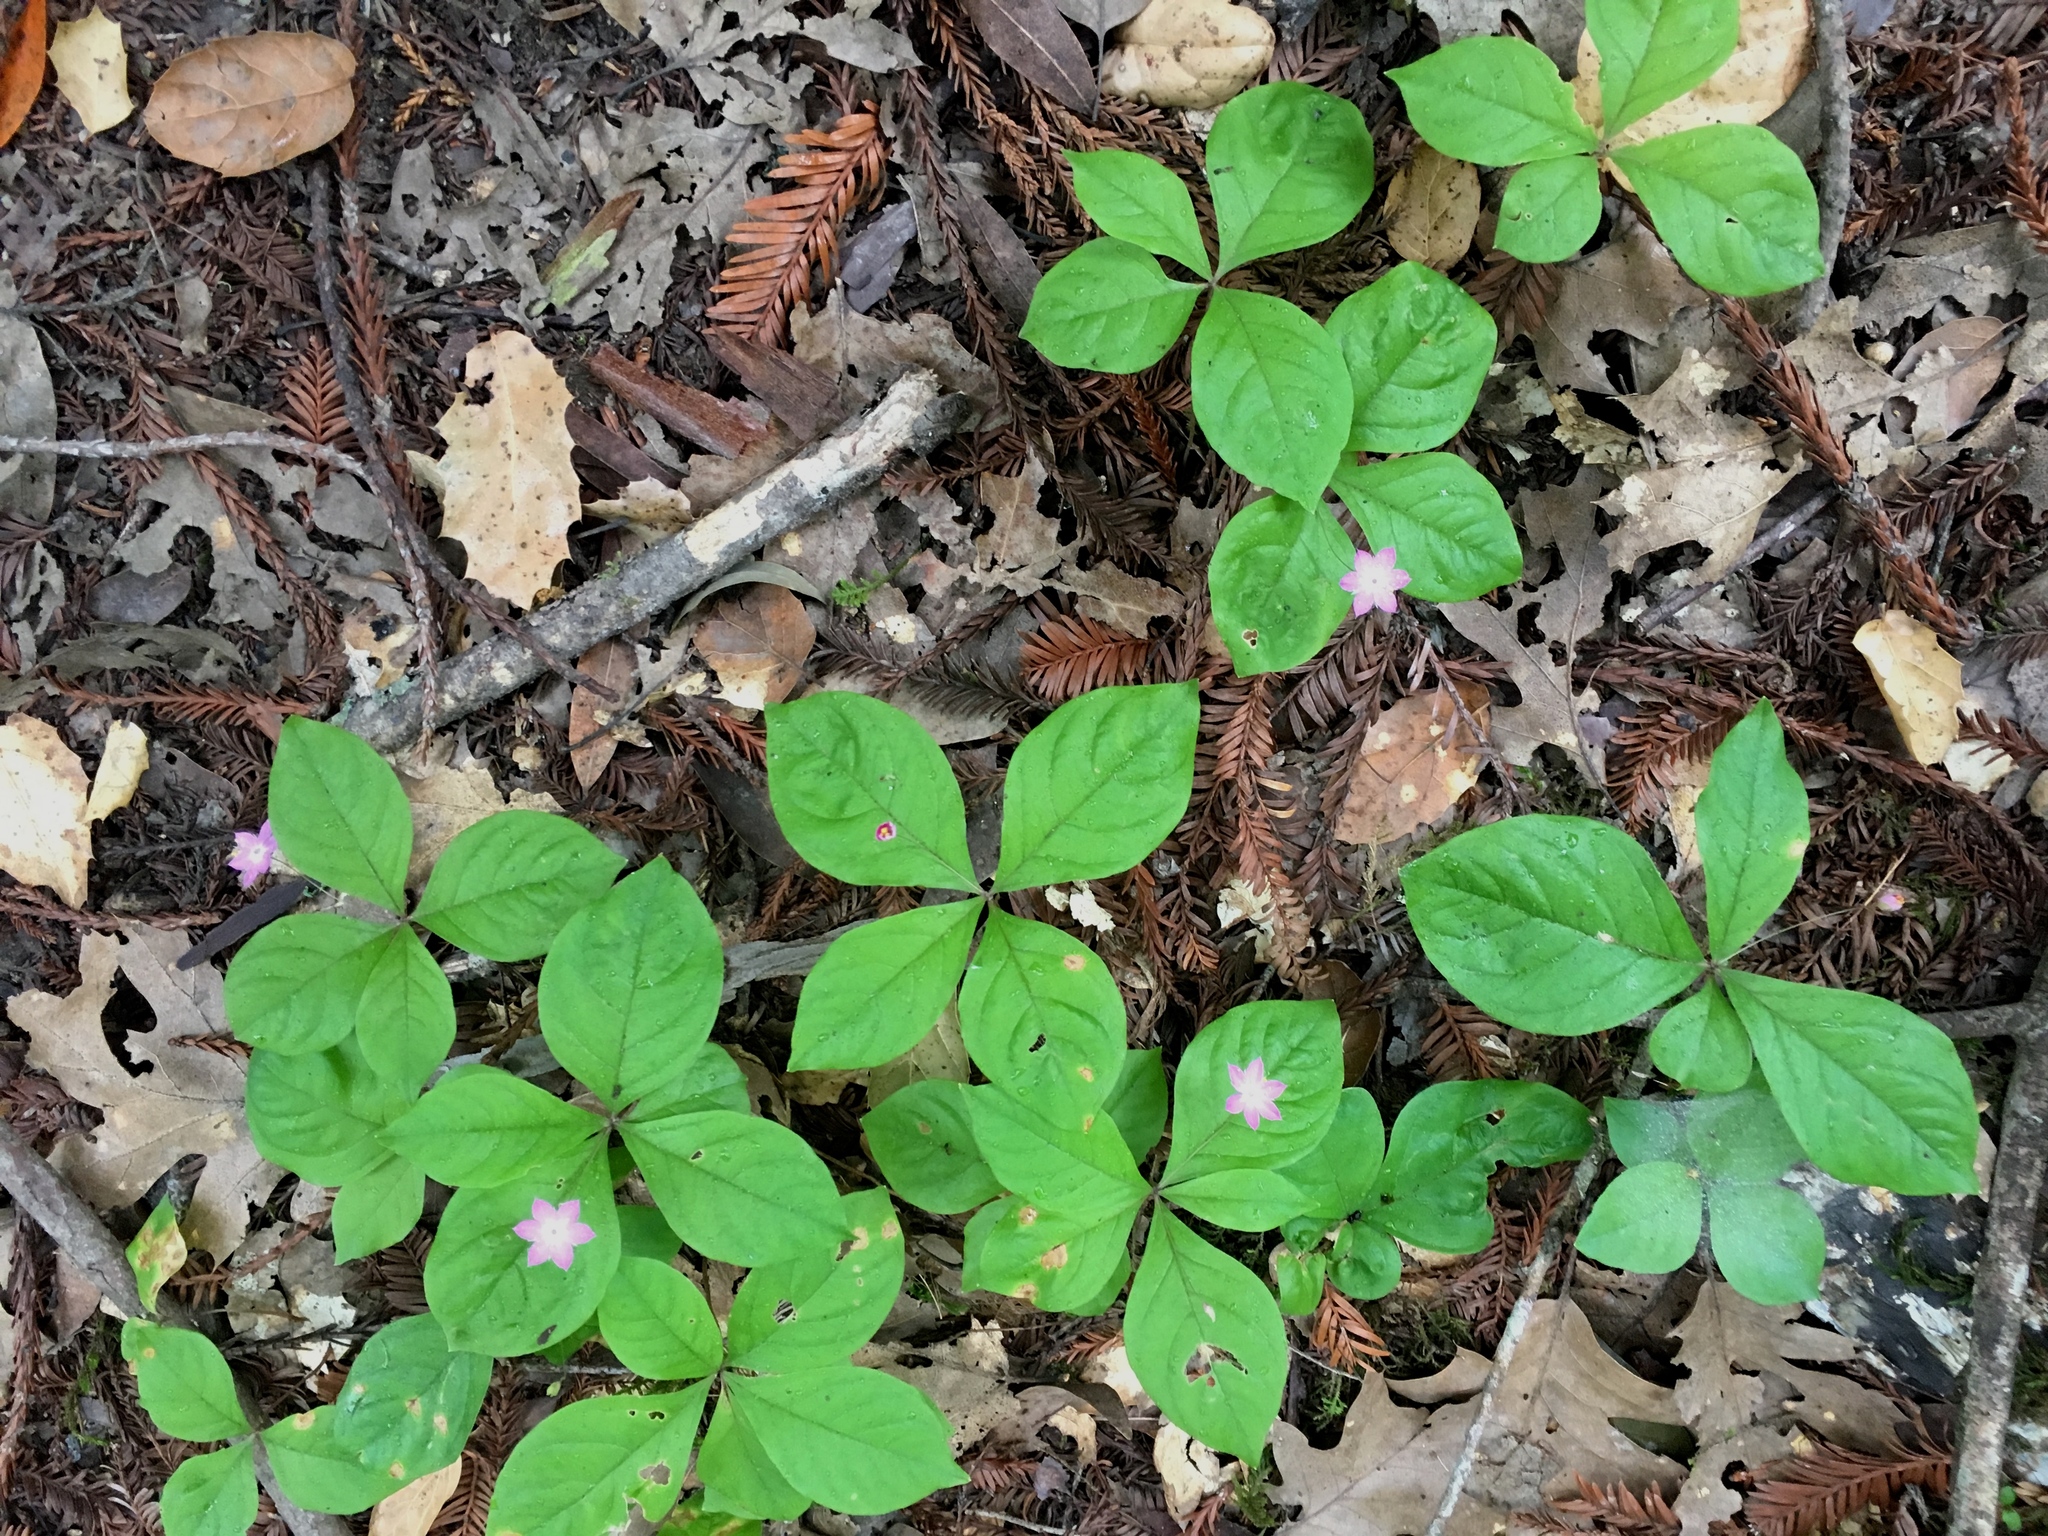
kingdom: Plantae
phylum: Tracheophyta
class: Magnoliopsida
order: Ericales
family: Primulaceae
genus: Lysimachia
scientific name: Lysimachia latifolia
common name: Pacific starflower
